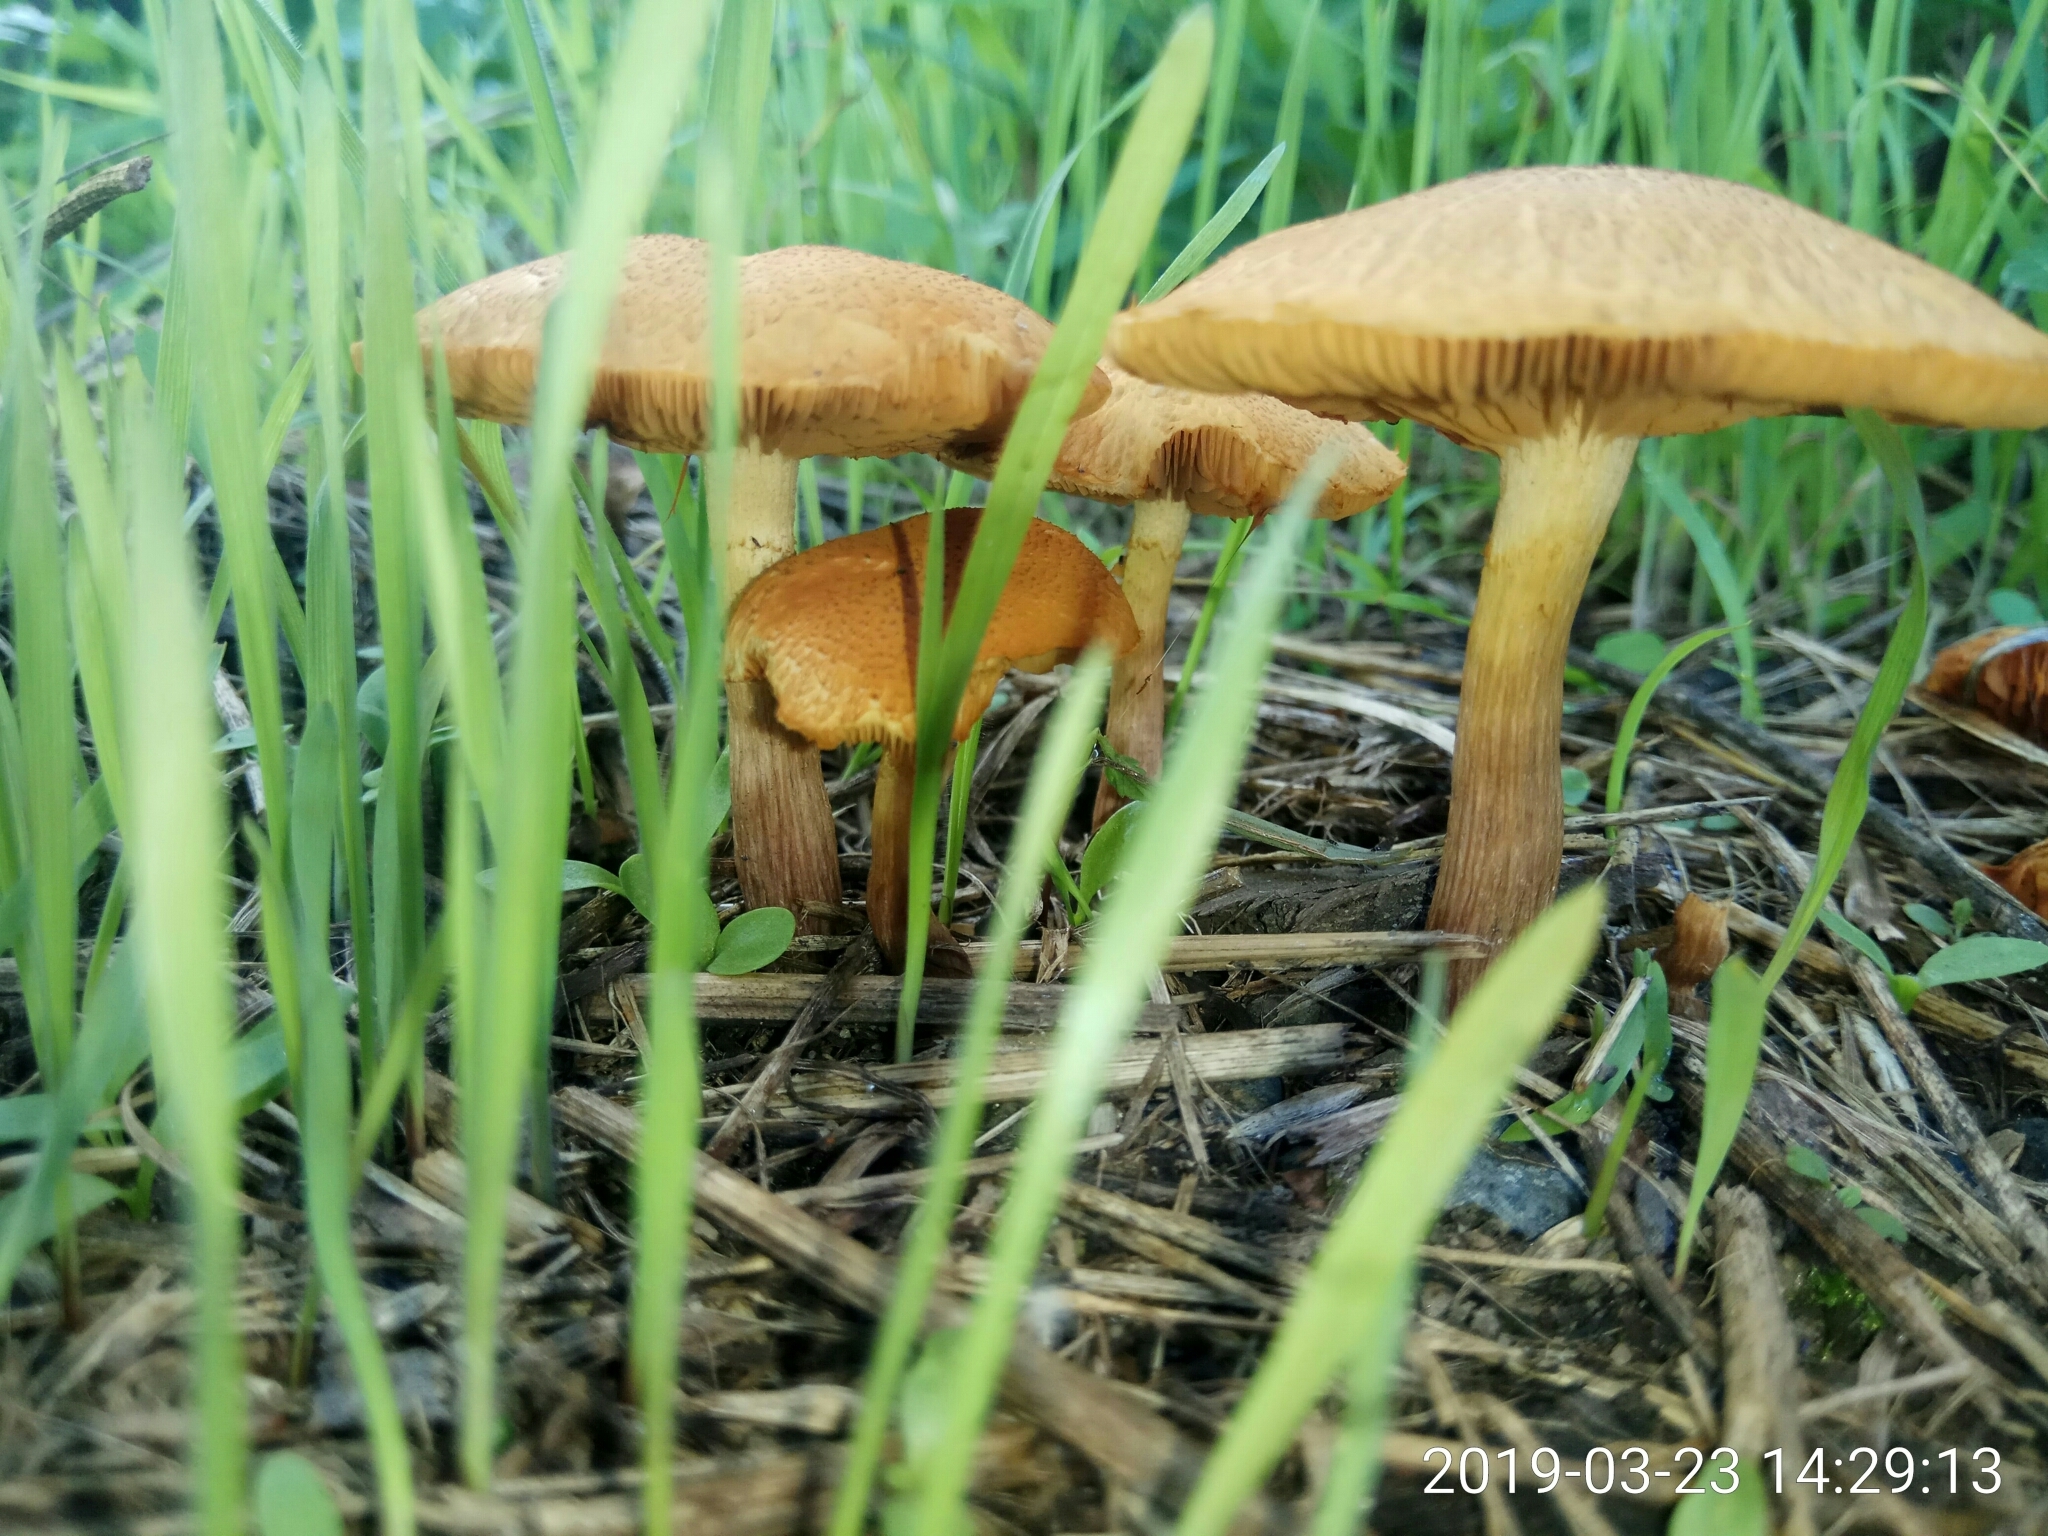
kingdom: Fungi
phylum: Basidiomycota
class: Agaricomycetes
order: Agaricales
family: Hymenogastraceae
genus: Gymnopilus
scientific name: Gymnopilus sapineus
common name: Scaly rustgill
